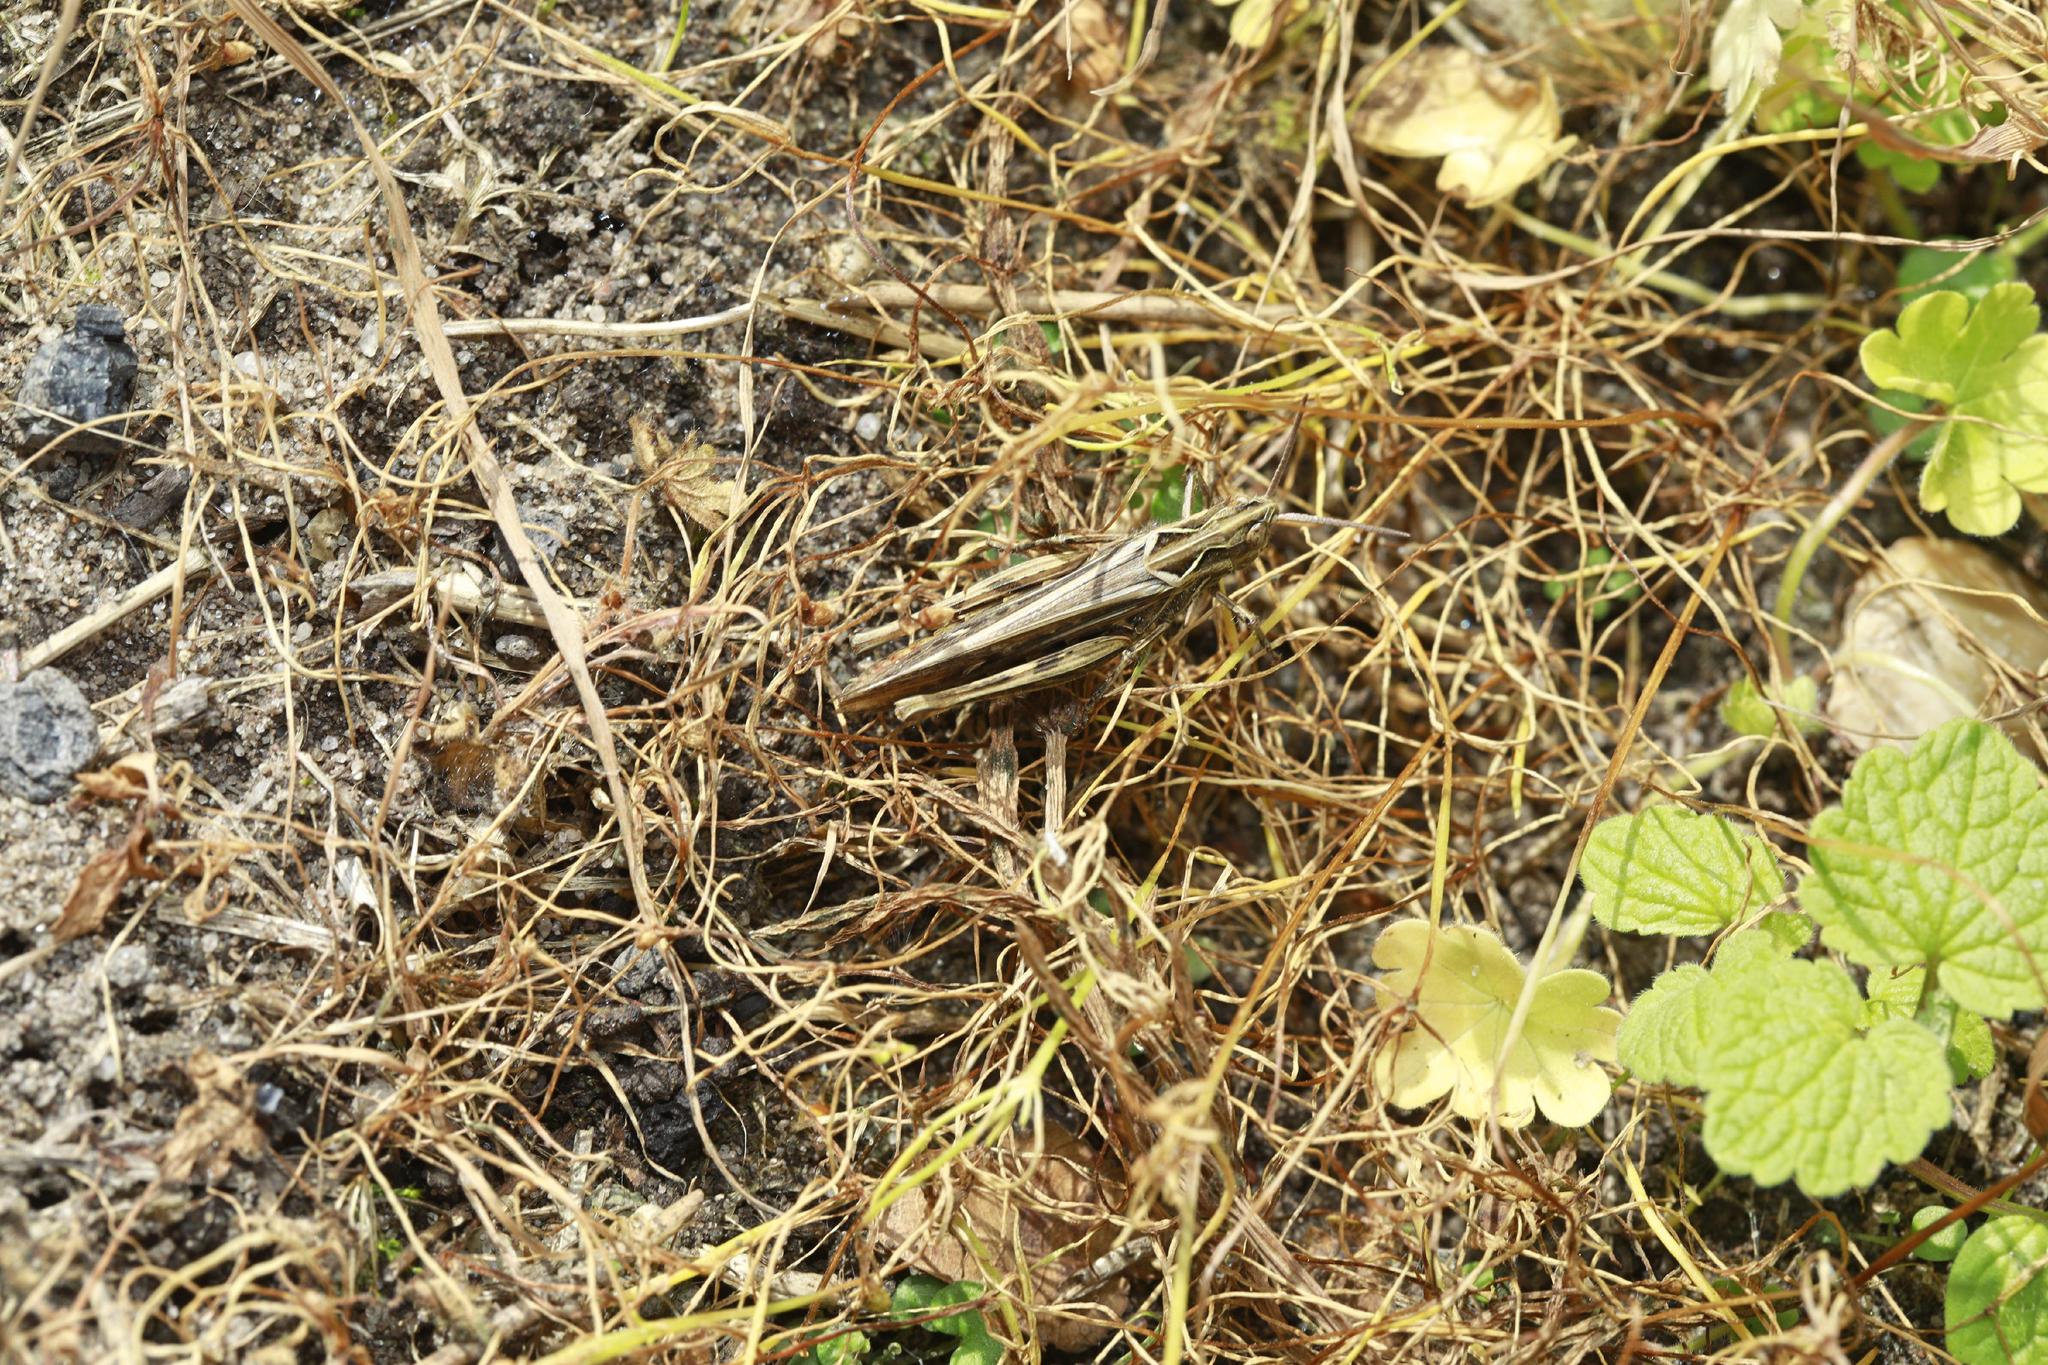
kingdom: Animalia
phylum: Arthropoda
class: Insecta
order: Orthoptera
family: Acrididae
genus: Chorthippus
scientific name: Chorthippus brunneus
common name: Field grasshopper
